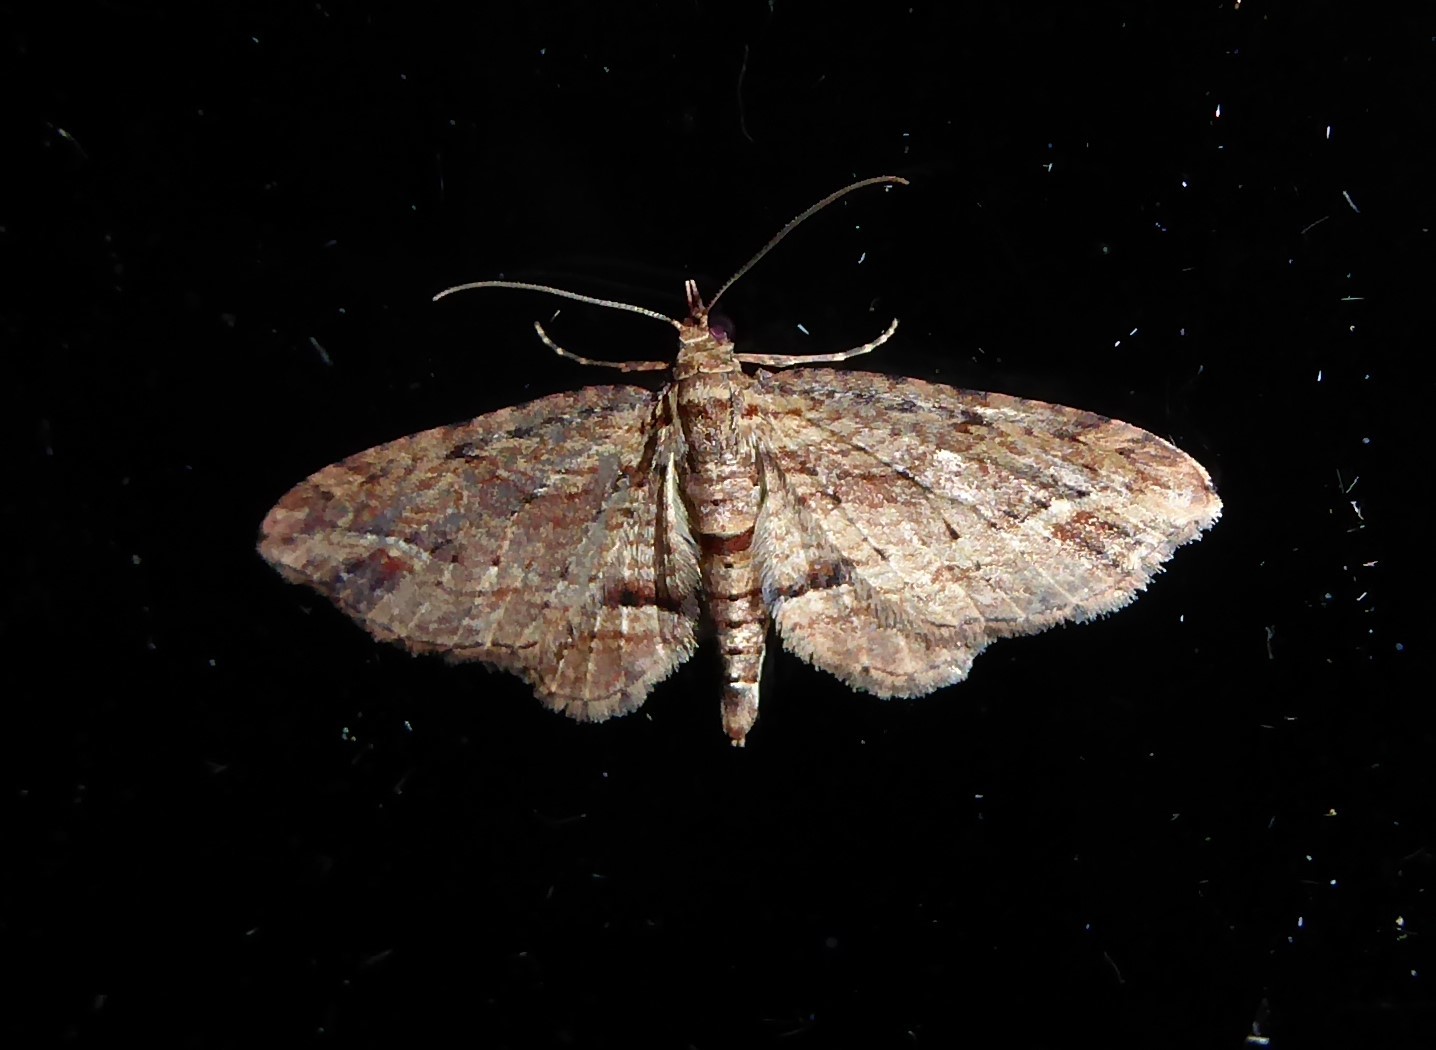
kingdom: Animalia
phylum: Arthropoda
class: Insecta
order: Lepidoptera
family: Geometridae
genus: Chloroclystis
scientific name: Chloroclystis filata
